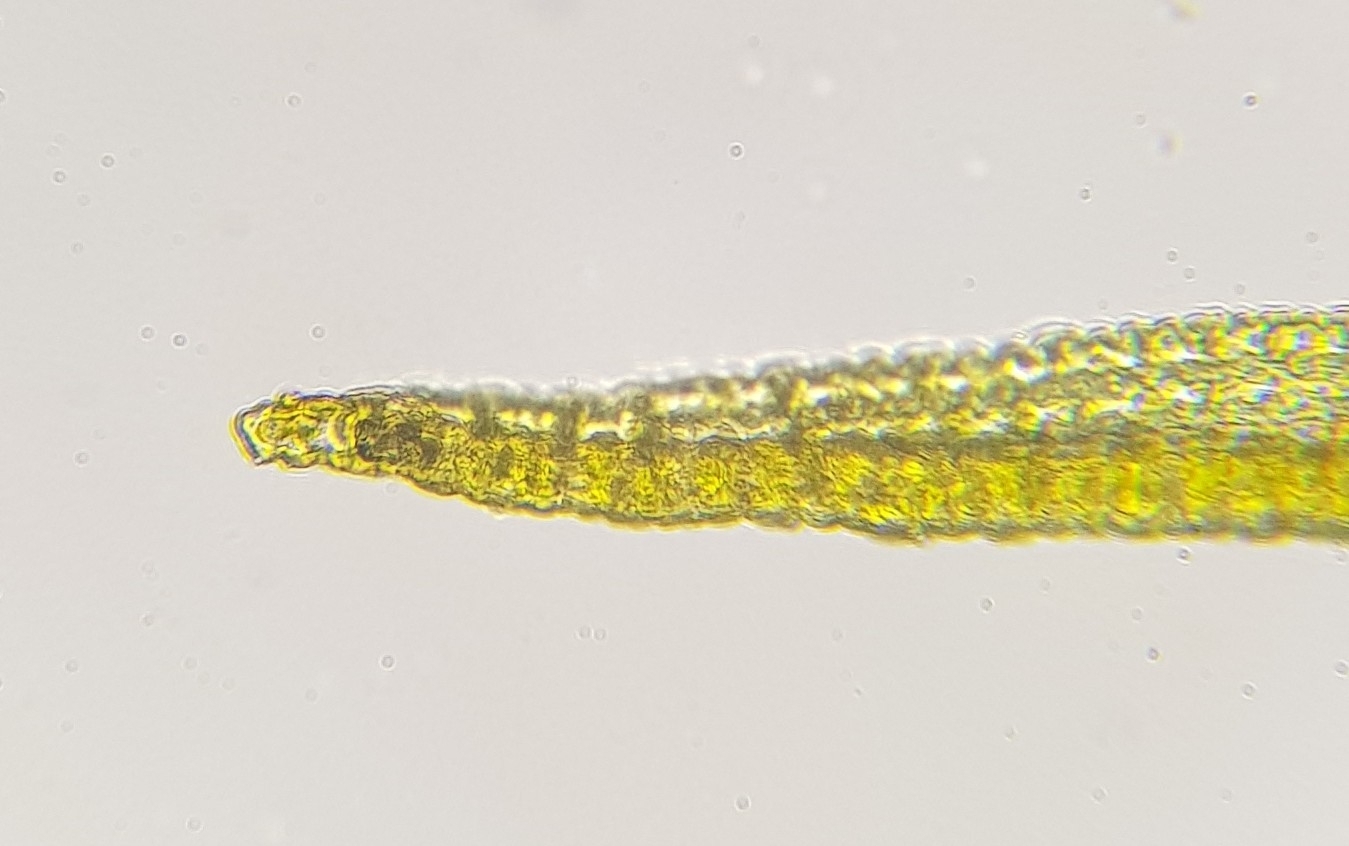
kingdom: Plantae
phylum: Bryophyta
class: Bryopsida
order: Grimmiales
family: Grimmiaceae
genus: Dilutineuron
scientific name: Dilutineuron fasciculare
